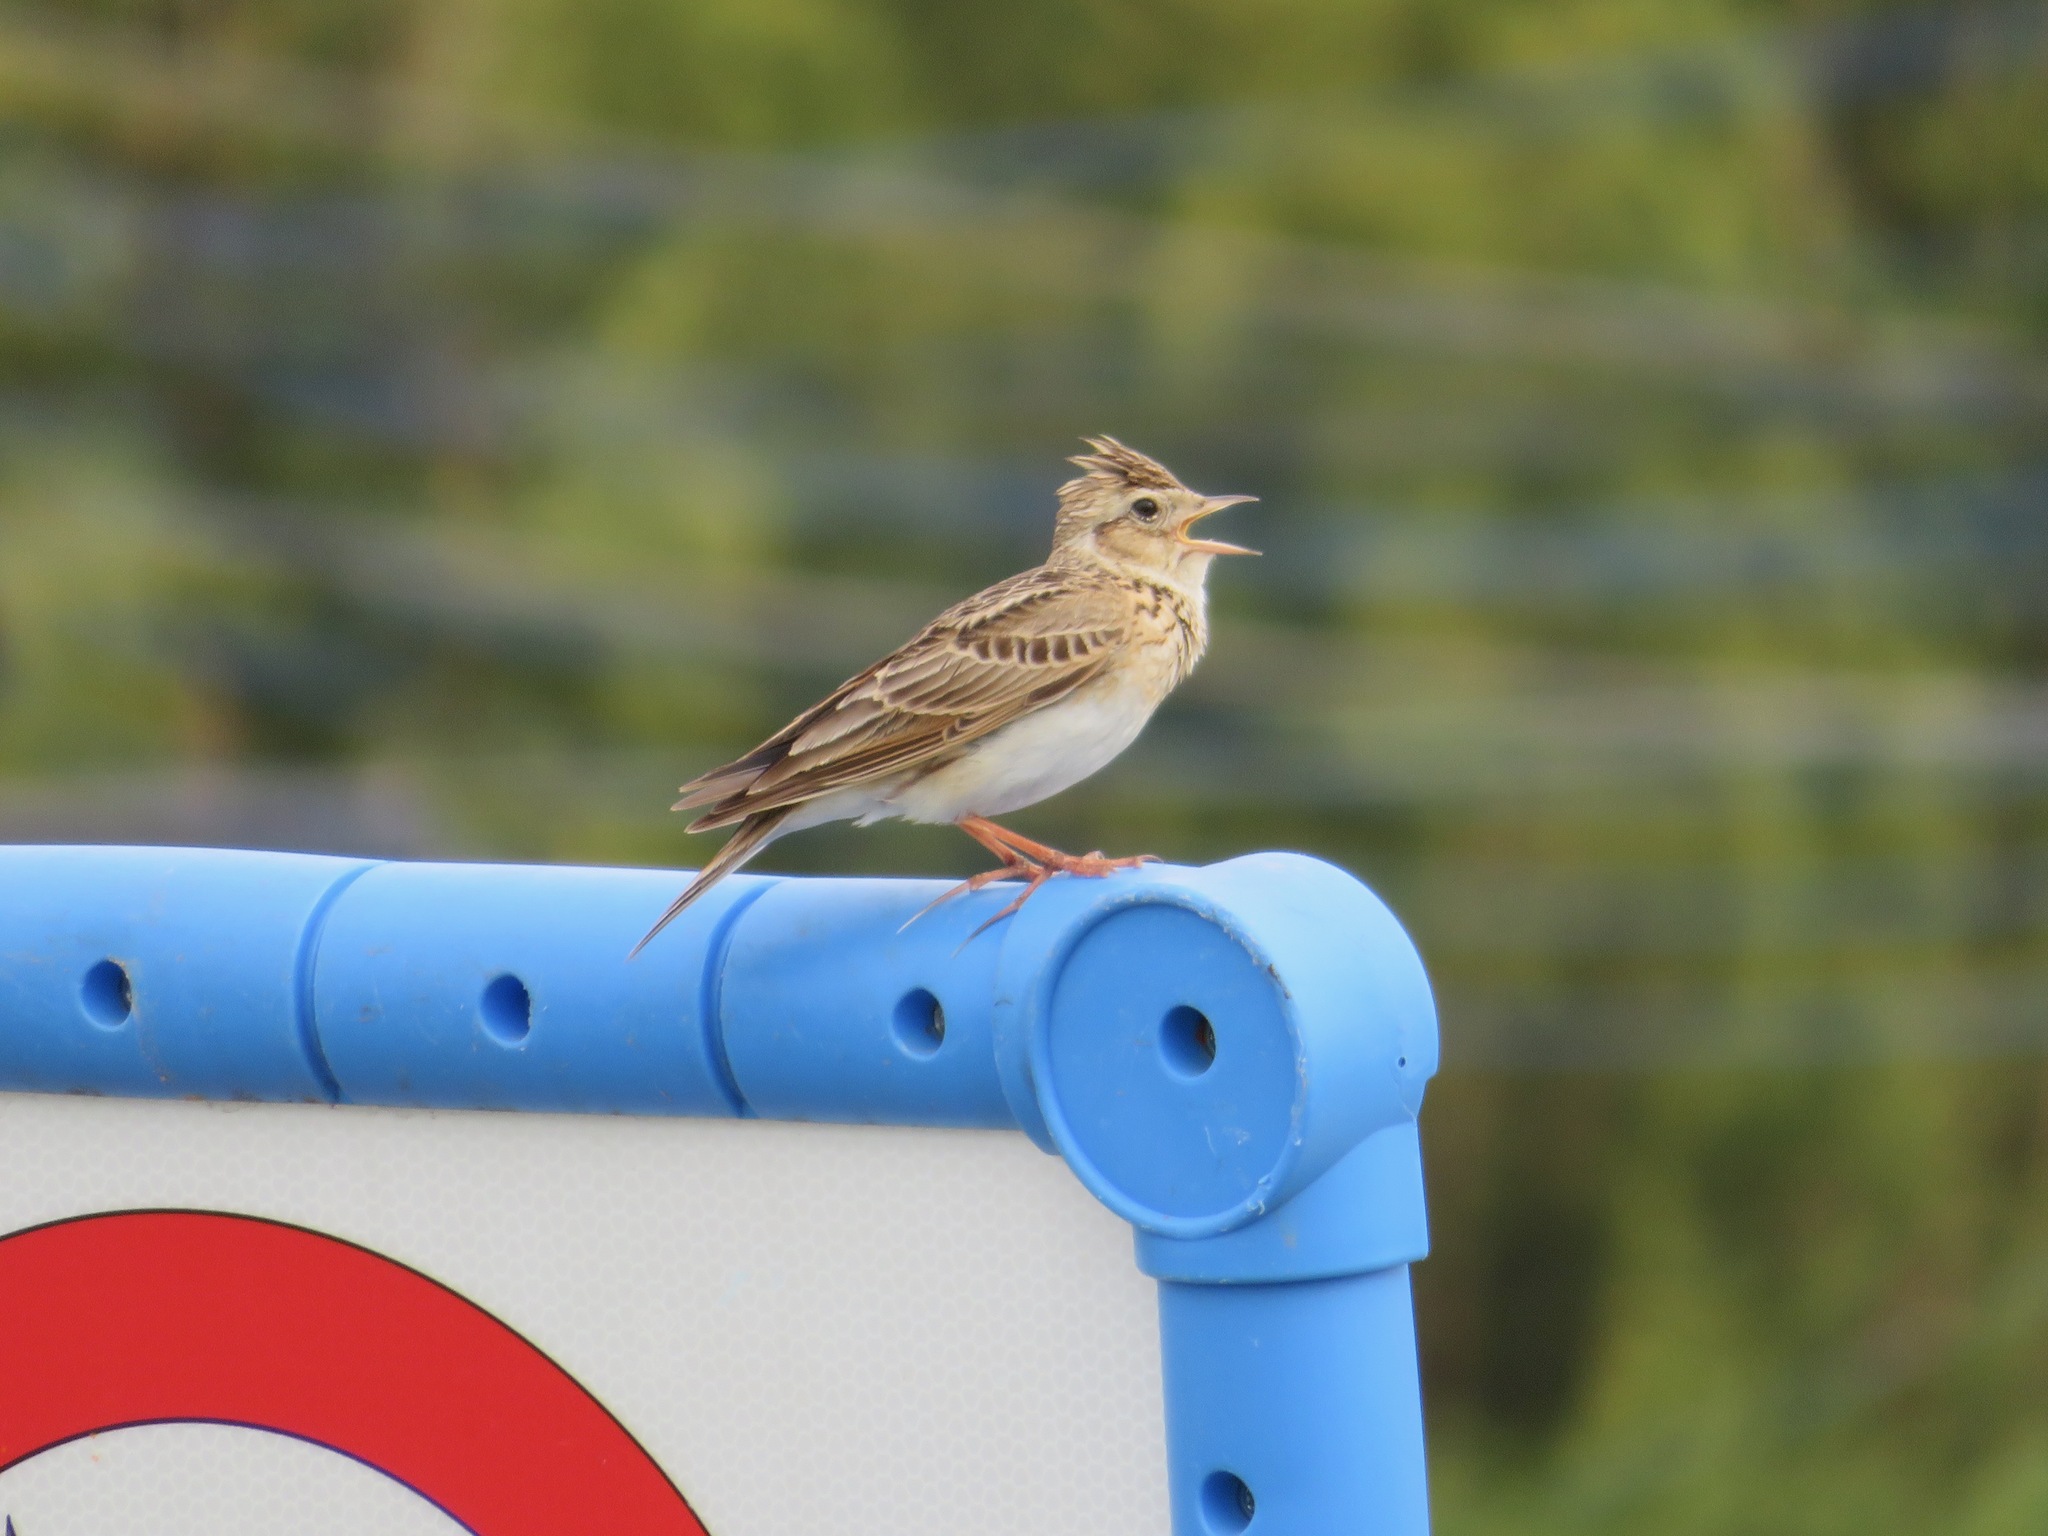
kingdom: Animalia
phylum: Chordata
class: Aves
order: Passeriformes
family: Alaudidae
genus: Alauda
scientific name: Alauda arvensis
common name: Eurasian skylark
